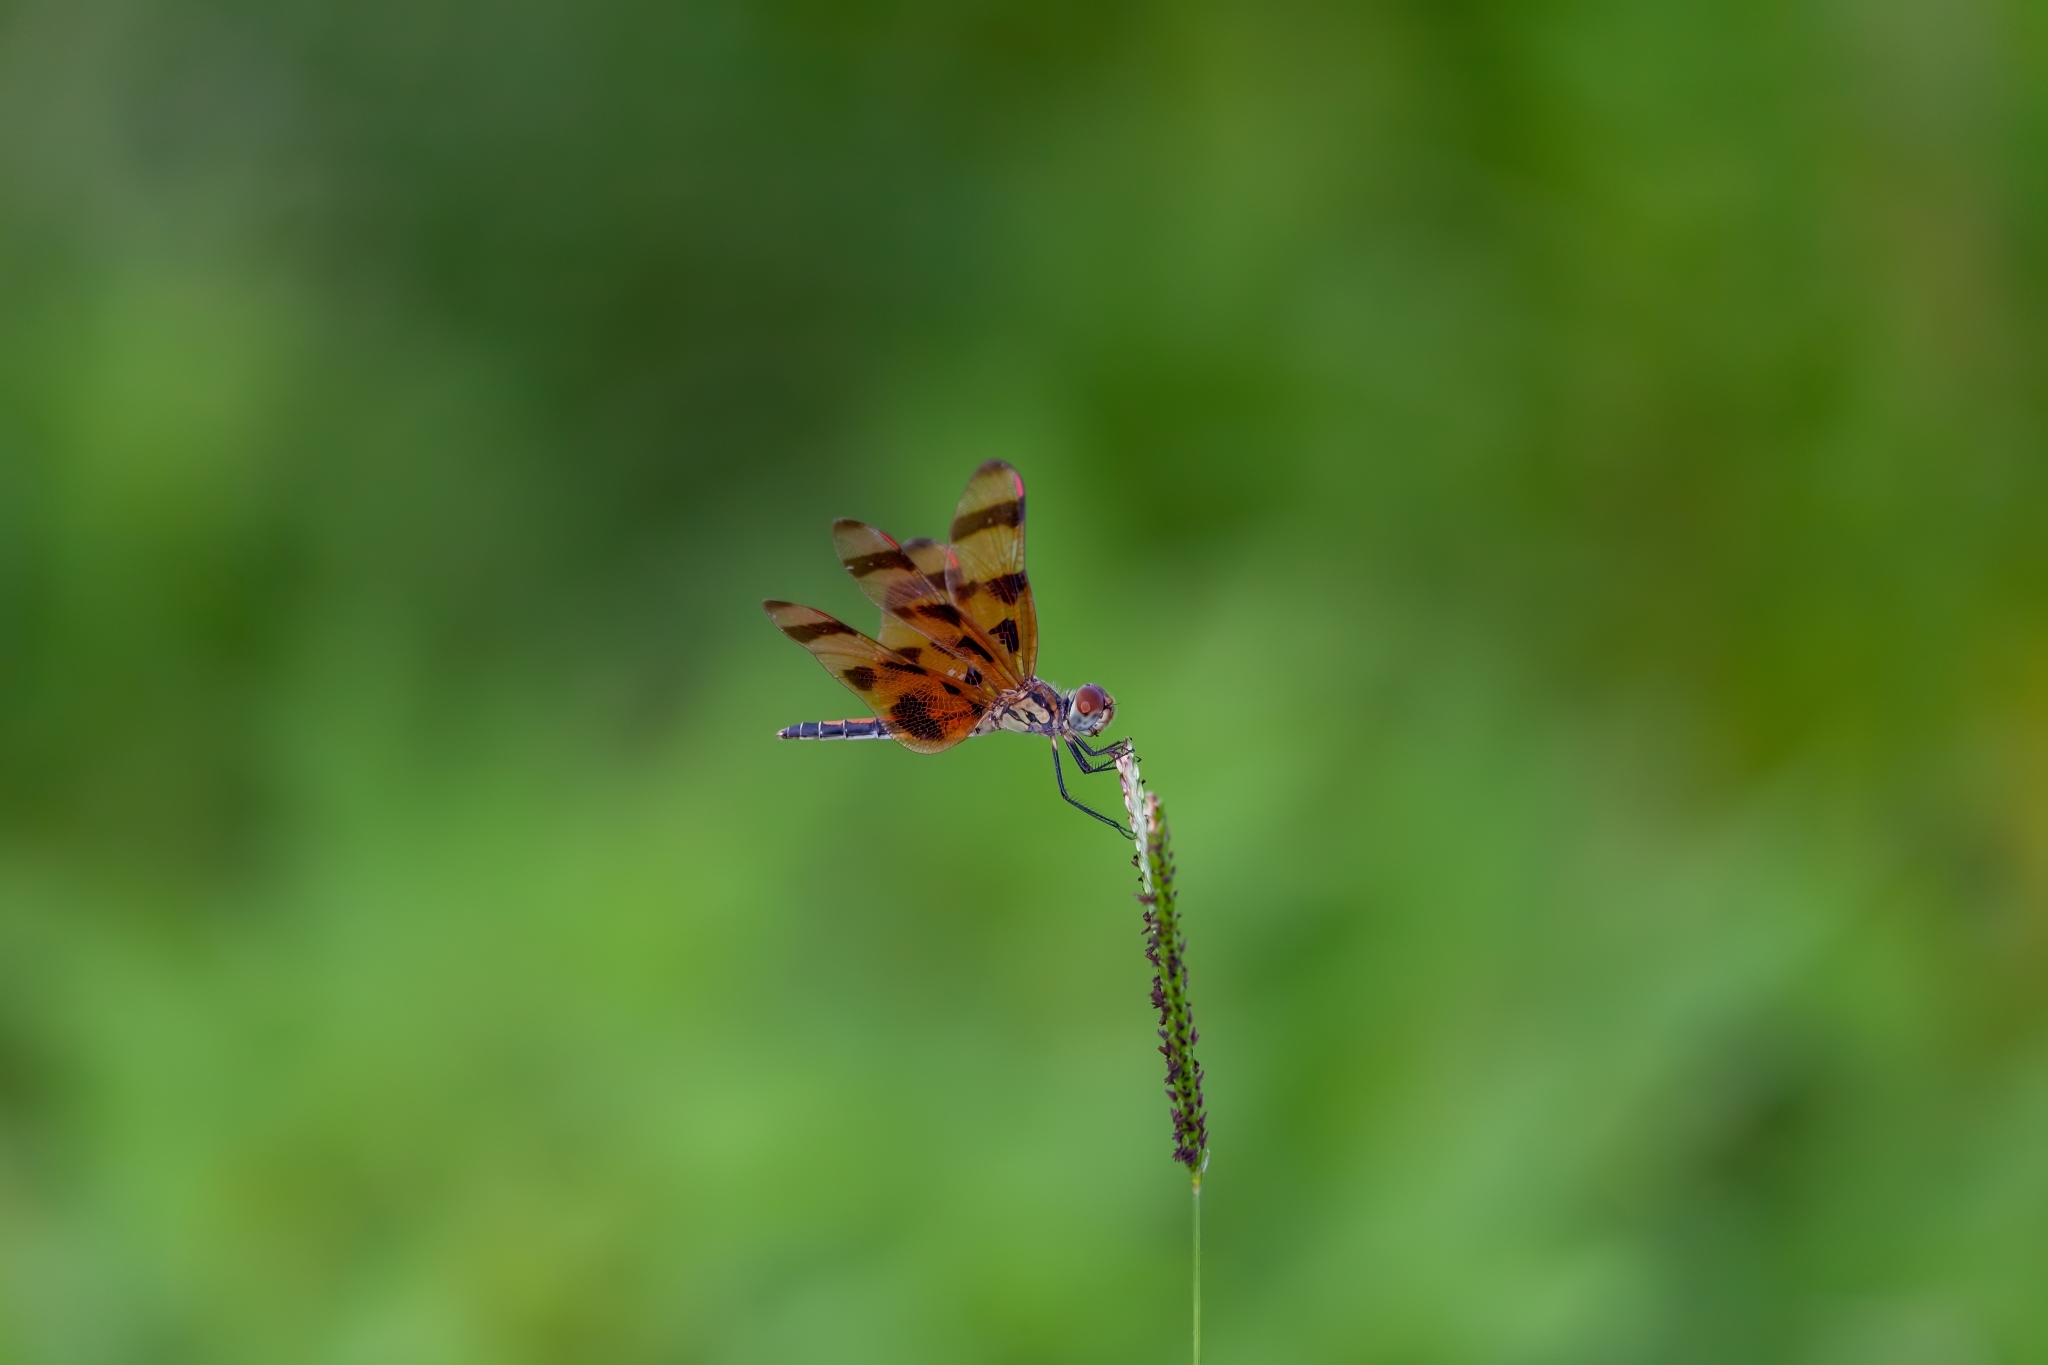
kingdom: Animalia
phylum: Arthropoda
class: Insecta
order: Odonata
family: Libellulidae
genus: Celithemis
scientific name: Celithemis eponina
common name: Halloween pennant
